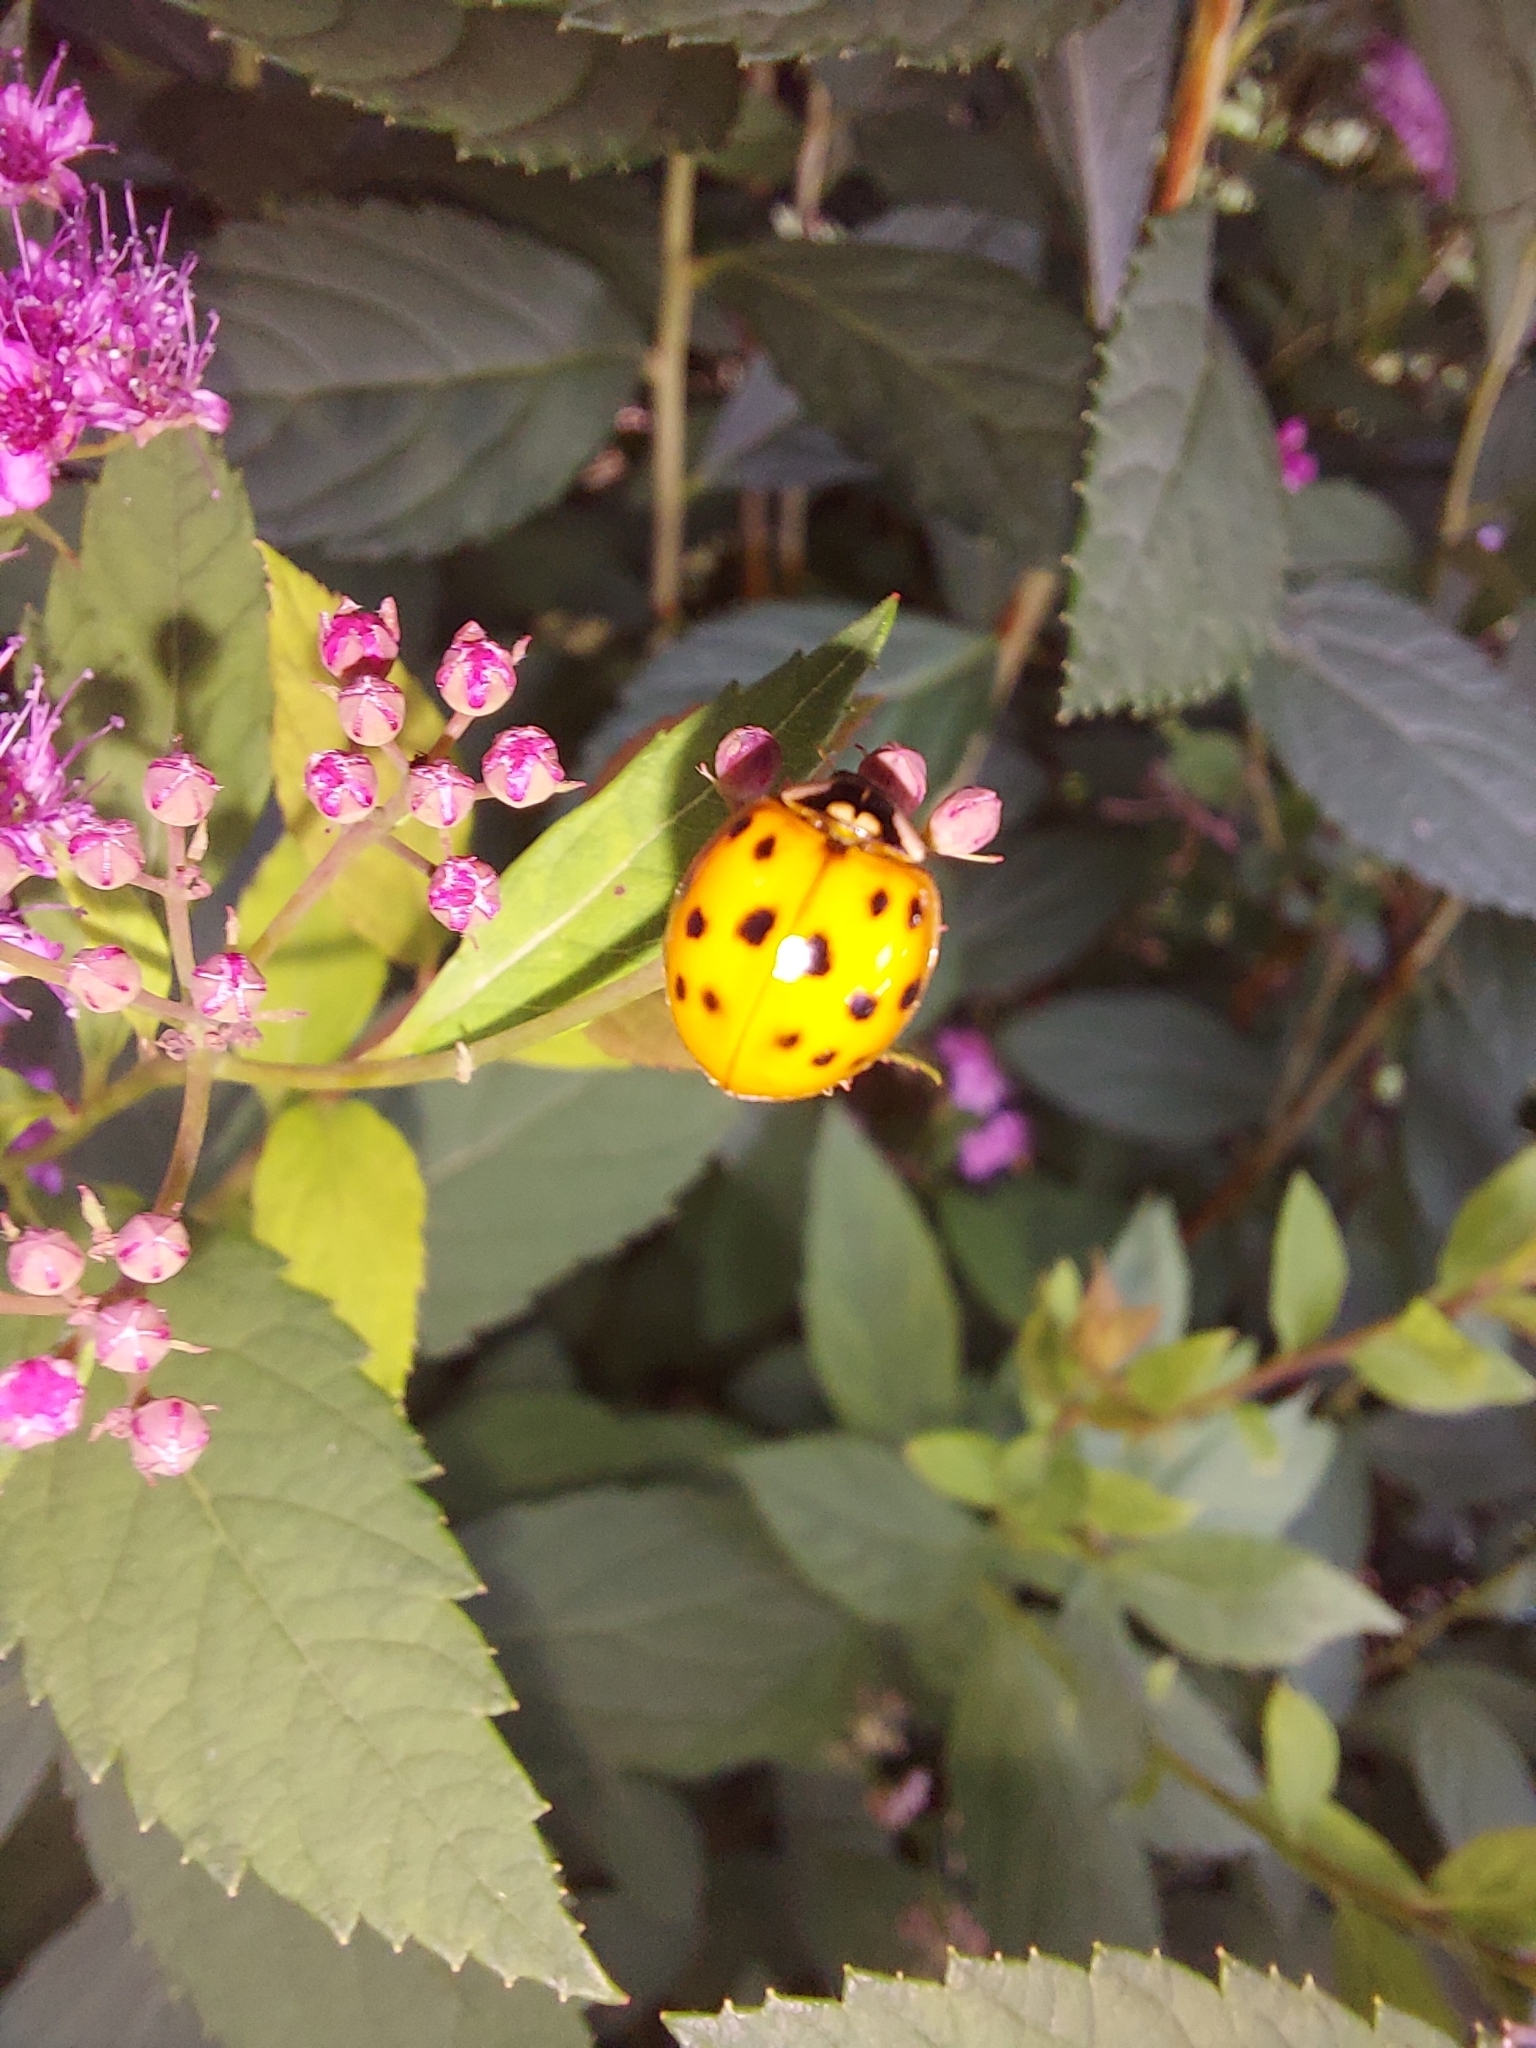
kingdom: Animalia
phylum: Arthropoda
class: Insecta
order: Coleoptera
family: Coccinellidae
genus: Harmonia
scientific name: Harmonia axyridis
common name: Harlequin ladybird
